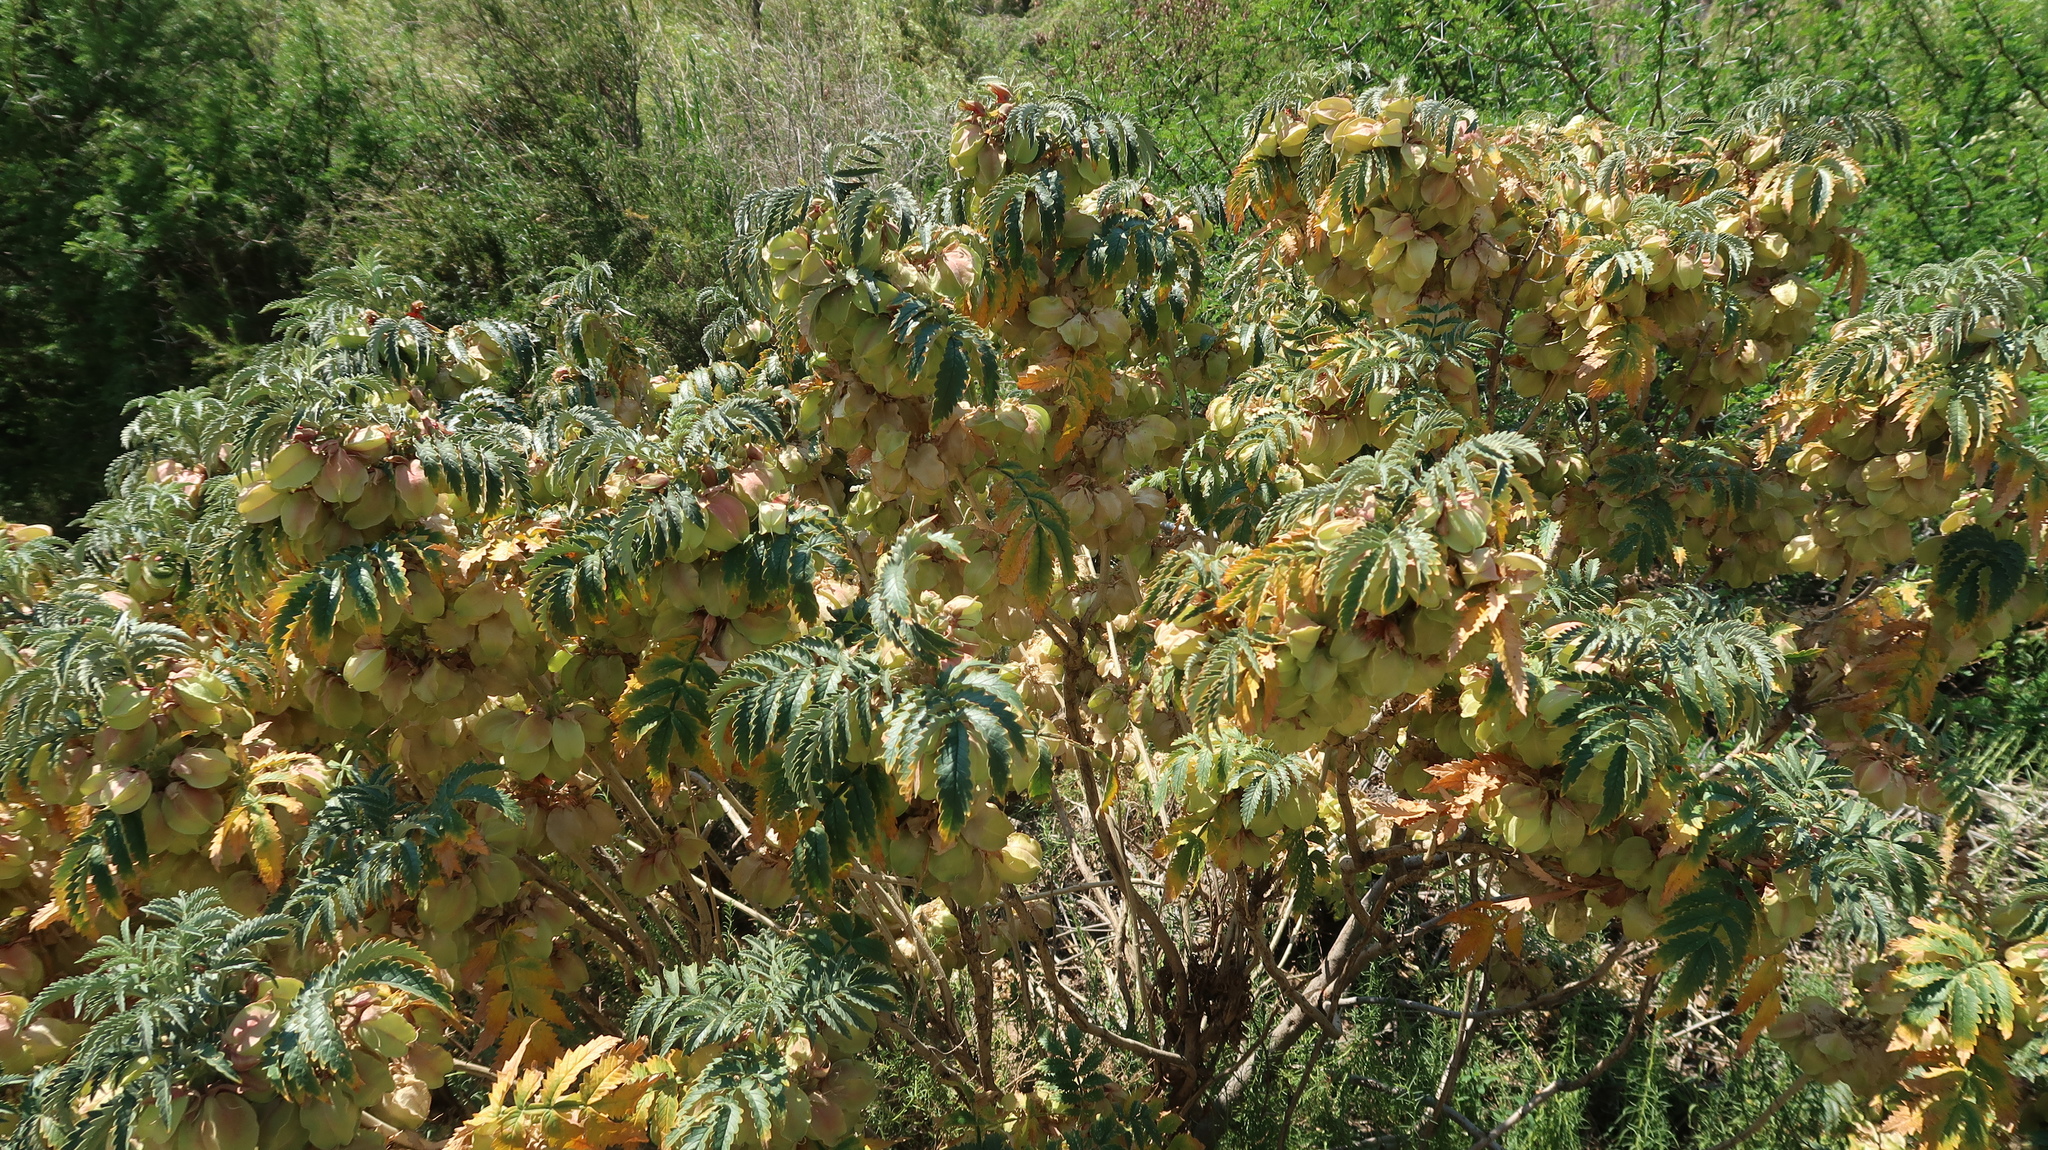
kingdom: Plantae
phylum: Tracheophyta
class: Magnoliopsida
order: Geraniales
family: Melianthaceae
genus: Melianthus
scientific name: Melianthus comosus
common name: Touch-me-not
